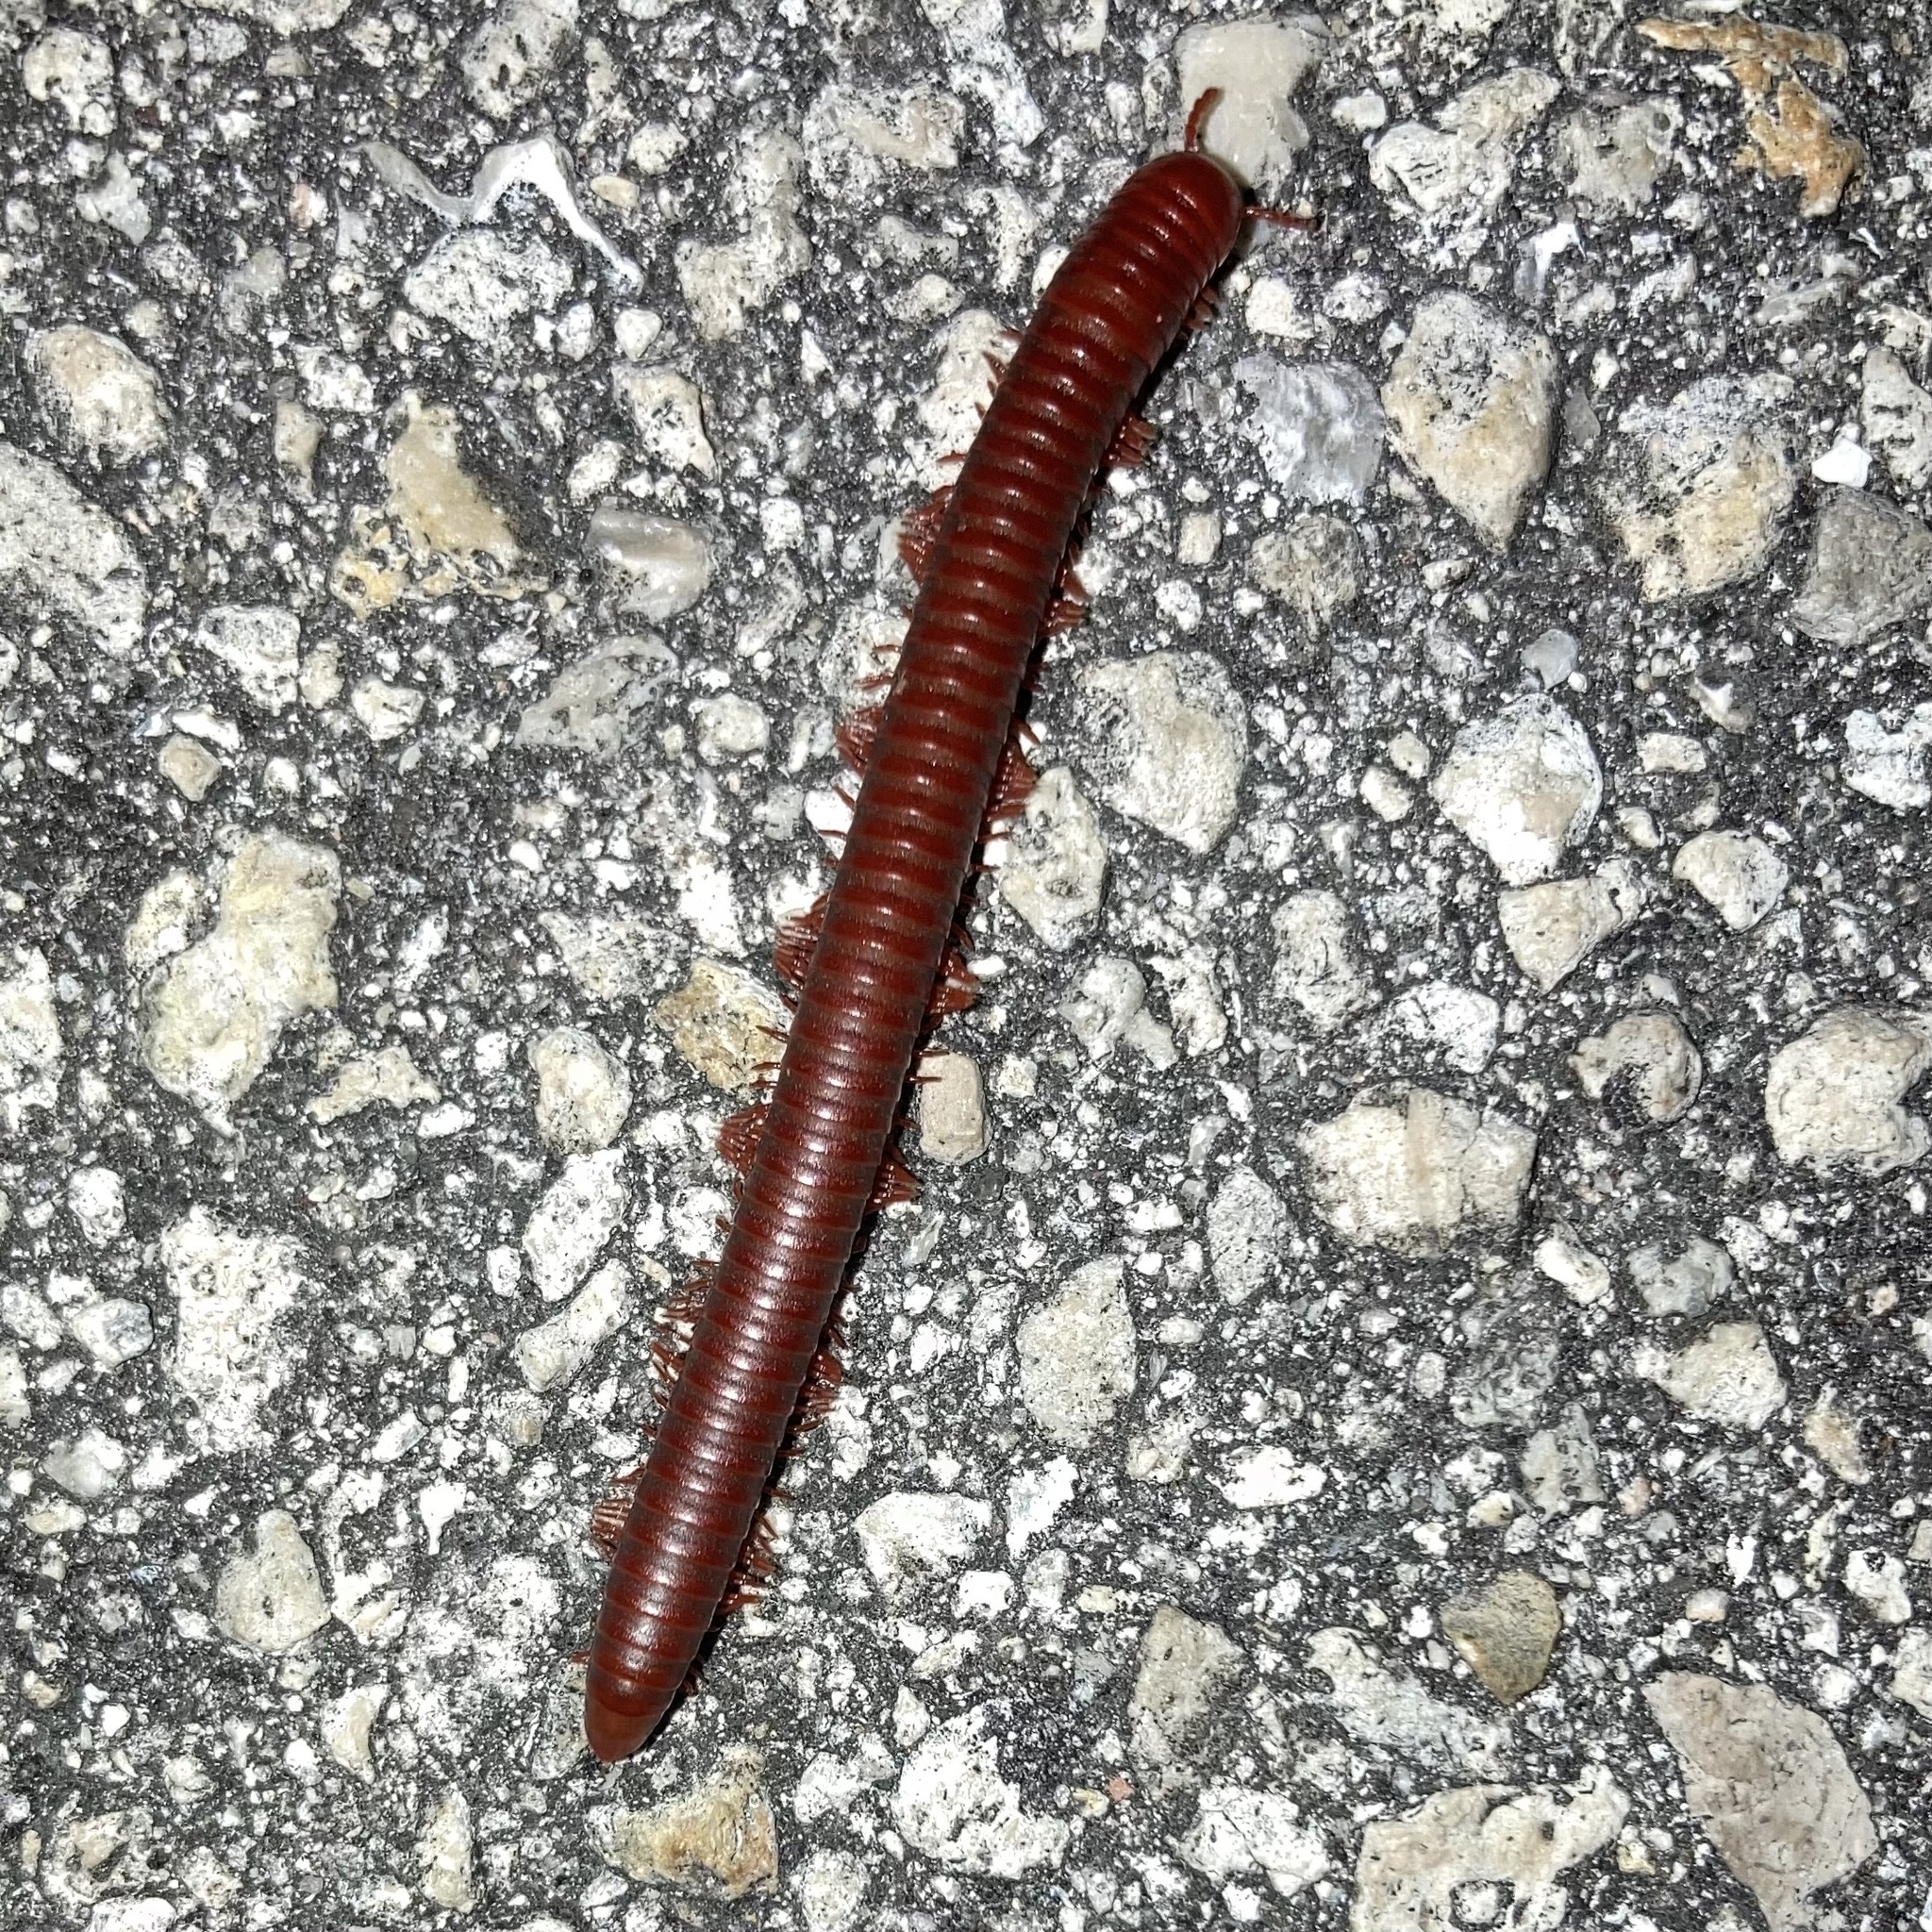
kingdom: Animalia
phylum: Arthropoda
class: Diplopoda
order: Spirobolida
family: Pachybolidae
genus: Trigoniulus
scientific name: Trigoniulus corallinus
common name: Millipede
